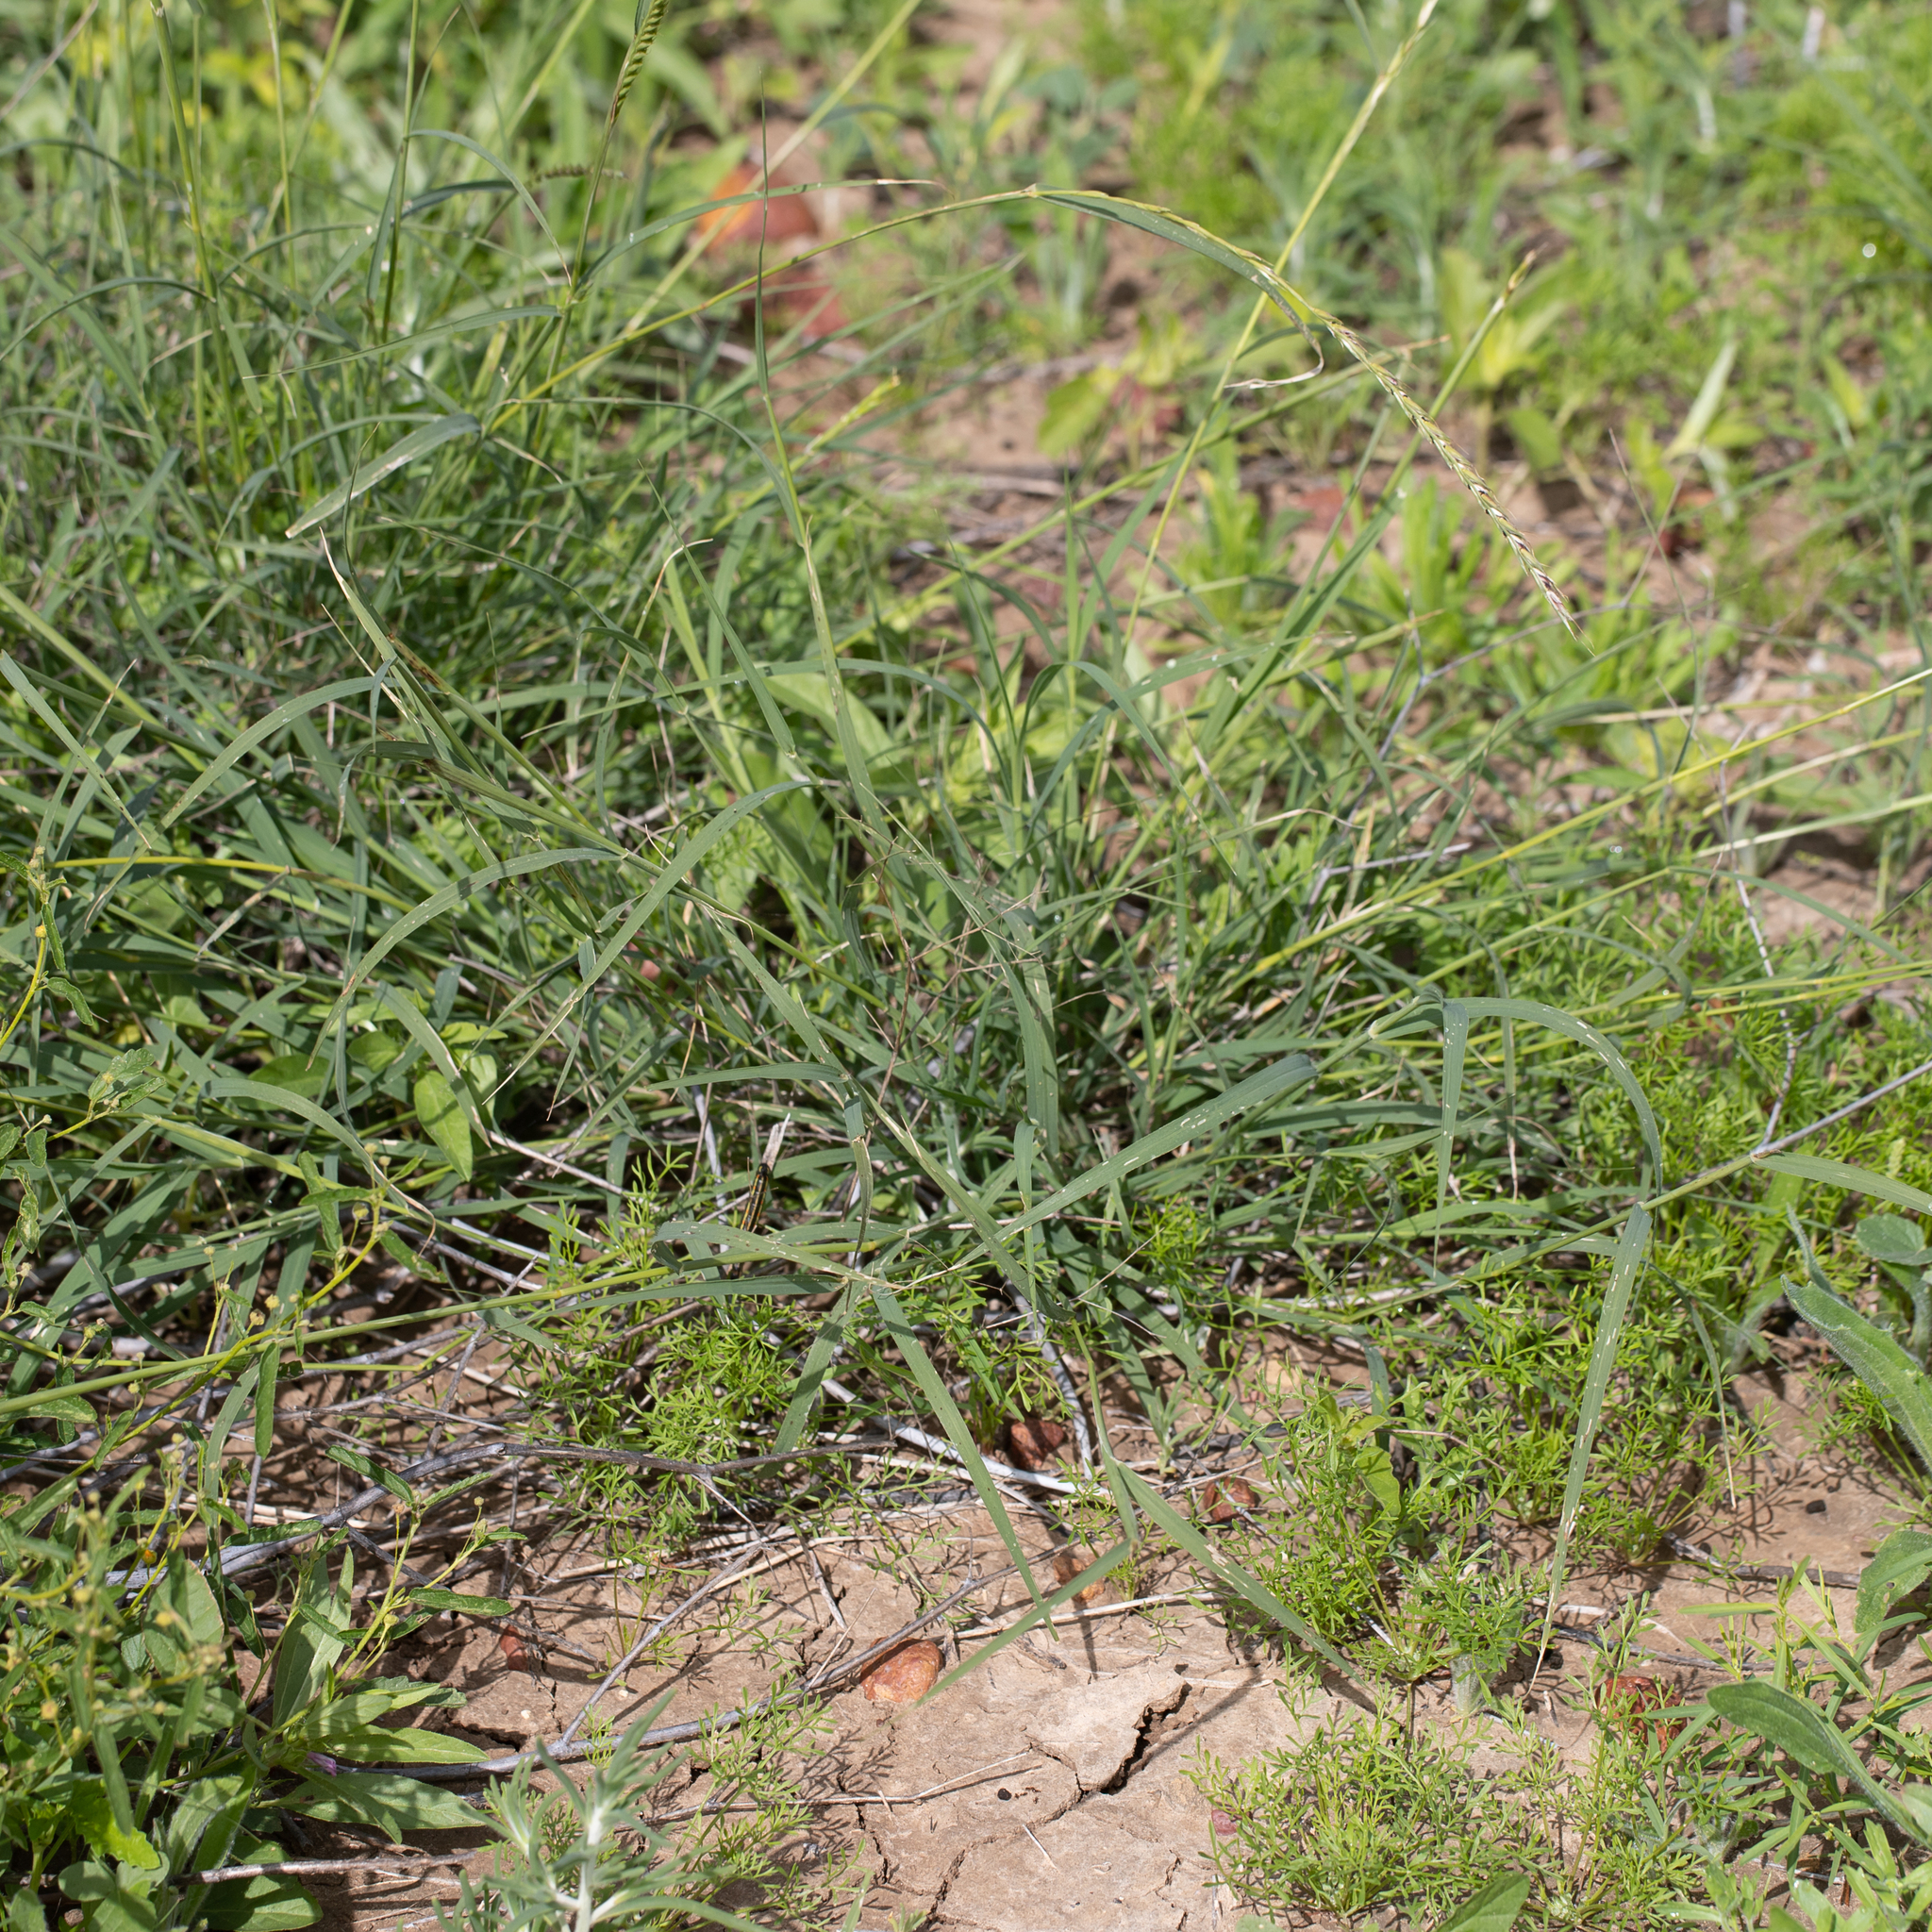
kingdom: Plantae
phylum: Tracheophyta
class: Liliopsida
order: Poales
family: Poaceae
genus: Astrebla
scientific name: Astrebla lappacea
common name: Curly mitchell grass
